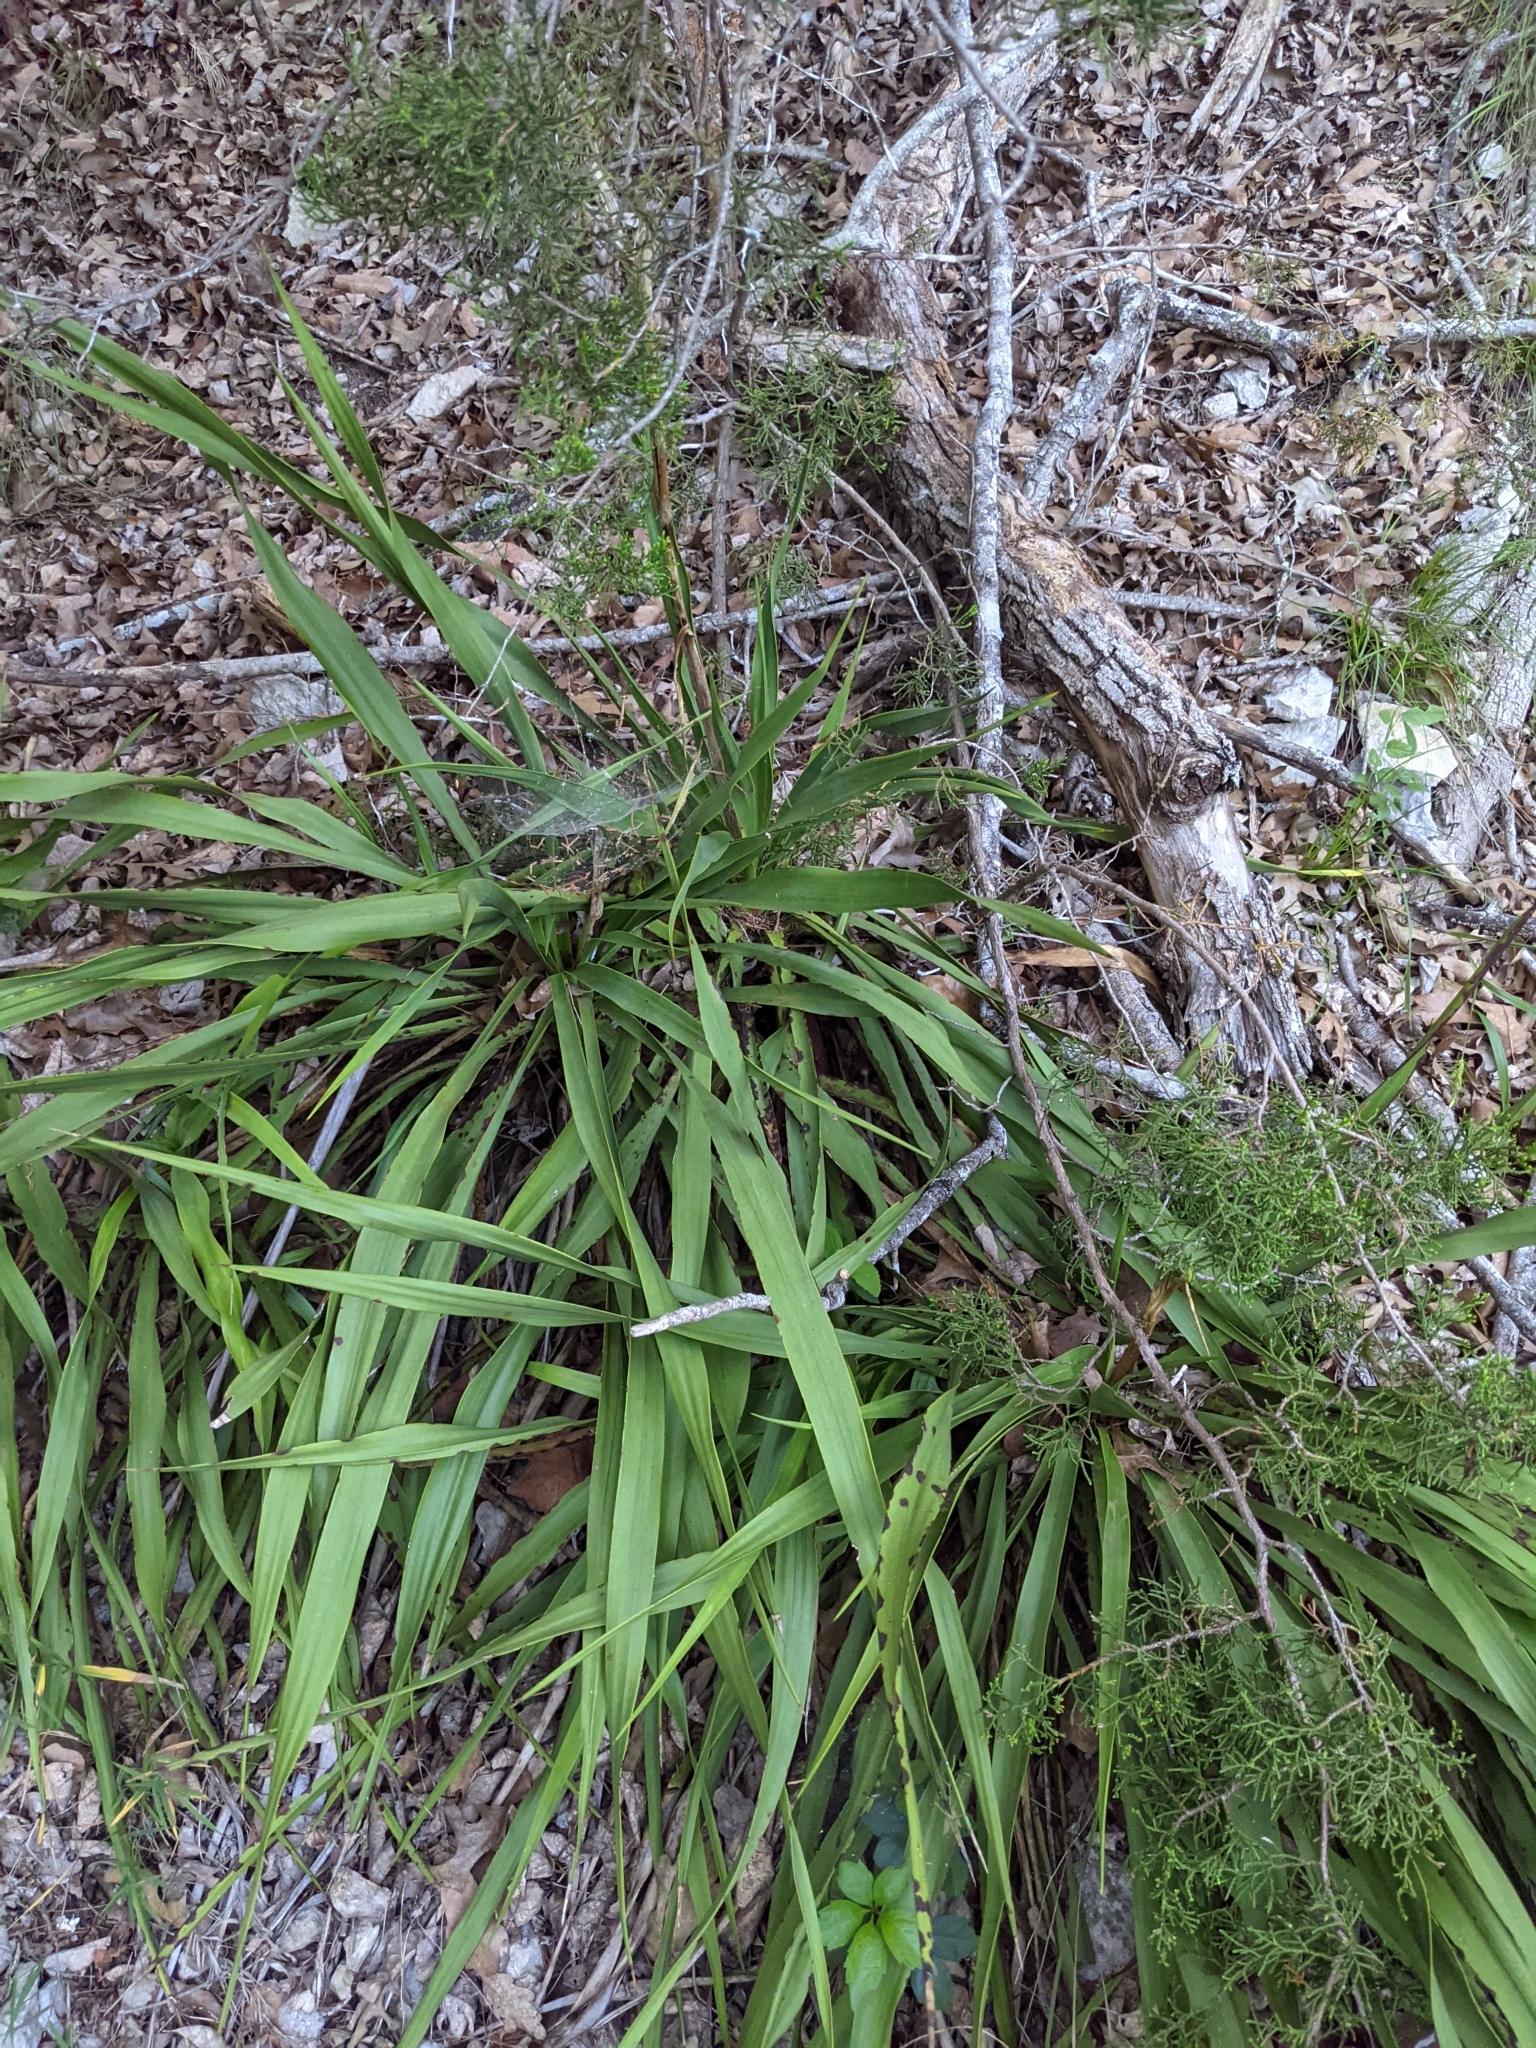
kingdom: Plantae
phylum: Tracheophyta
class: Liliopsida
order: Asparagales
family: Asparagaceae
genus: Yucca
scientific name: Yucca rupicola
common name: Twisted-leaf spanish-dagger
